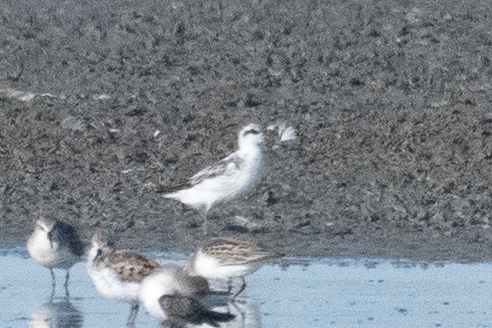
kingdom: Animalia
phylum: Chordata
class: Aves
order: Charadriiformes
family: Scolopacidae
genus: Phalaropus
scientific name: Phalaropus lobatus
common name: Red-necked phalarope
